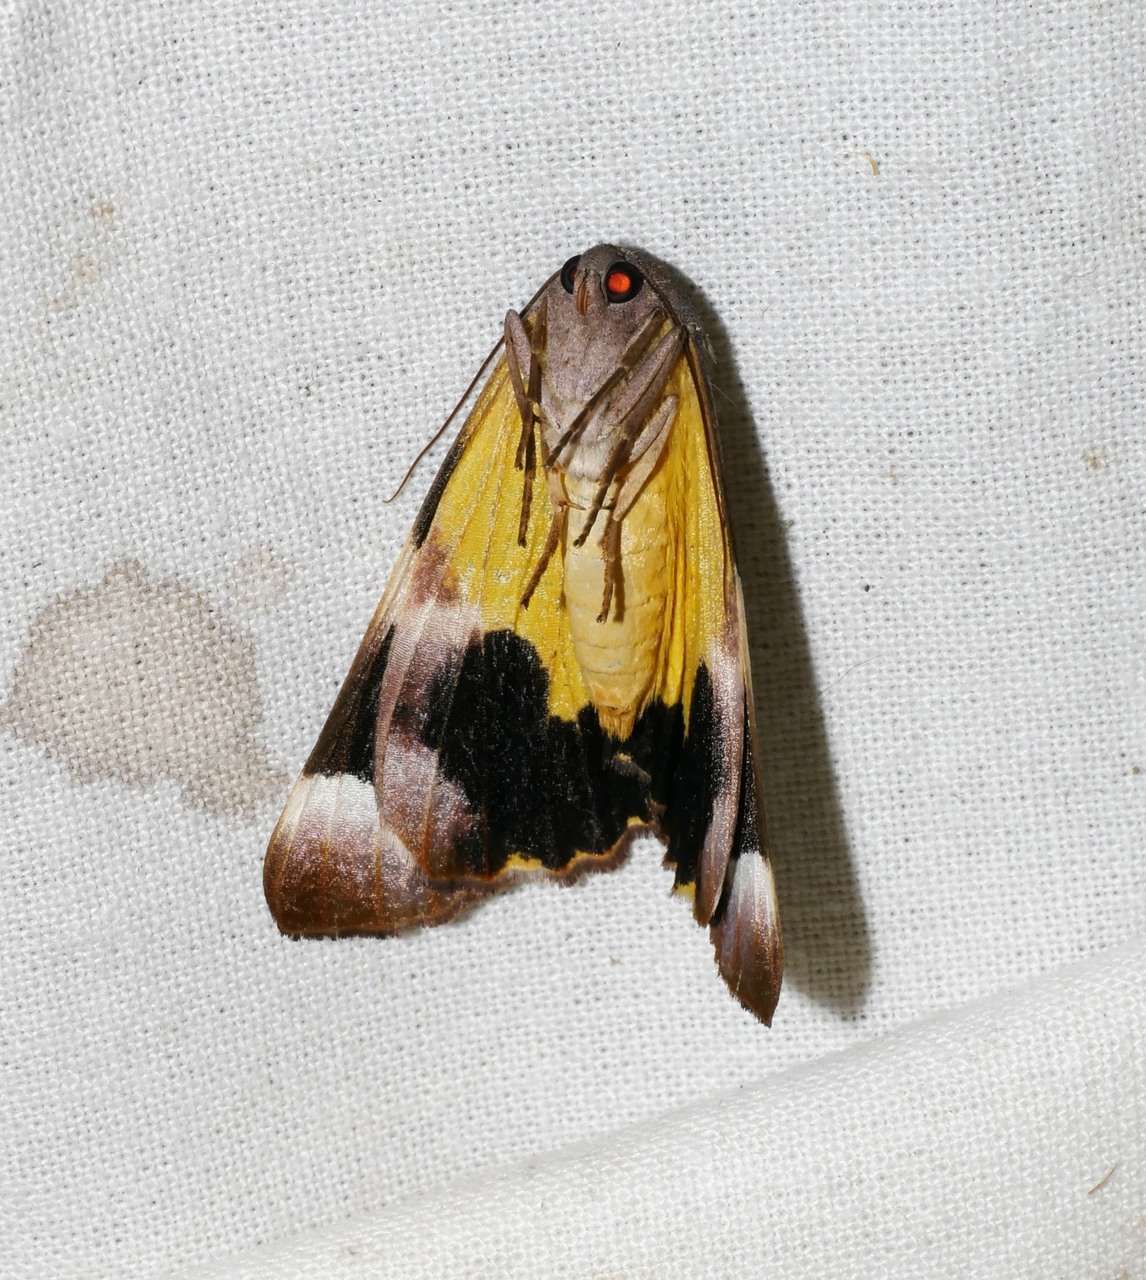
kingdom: Animalia
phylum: Arthropoda
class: Insecta
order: Lepidoptera
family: Geometridae
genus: Niceteria
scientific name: Niceteria macrocosma
